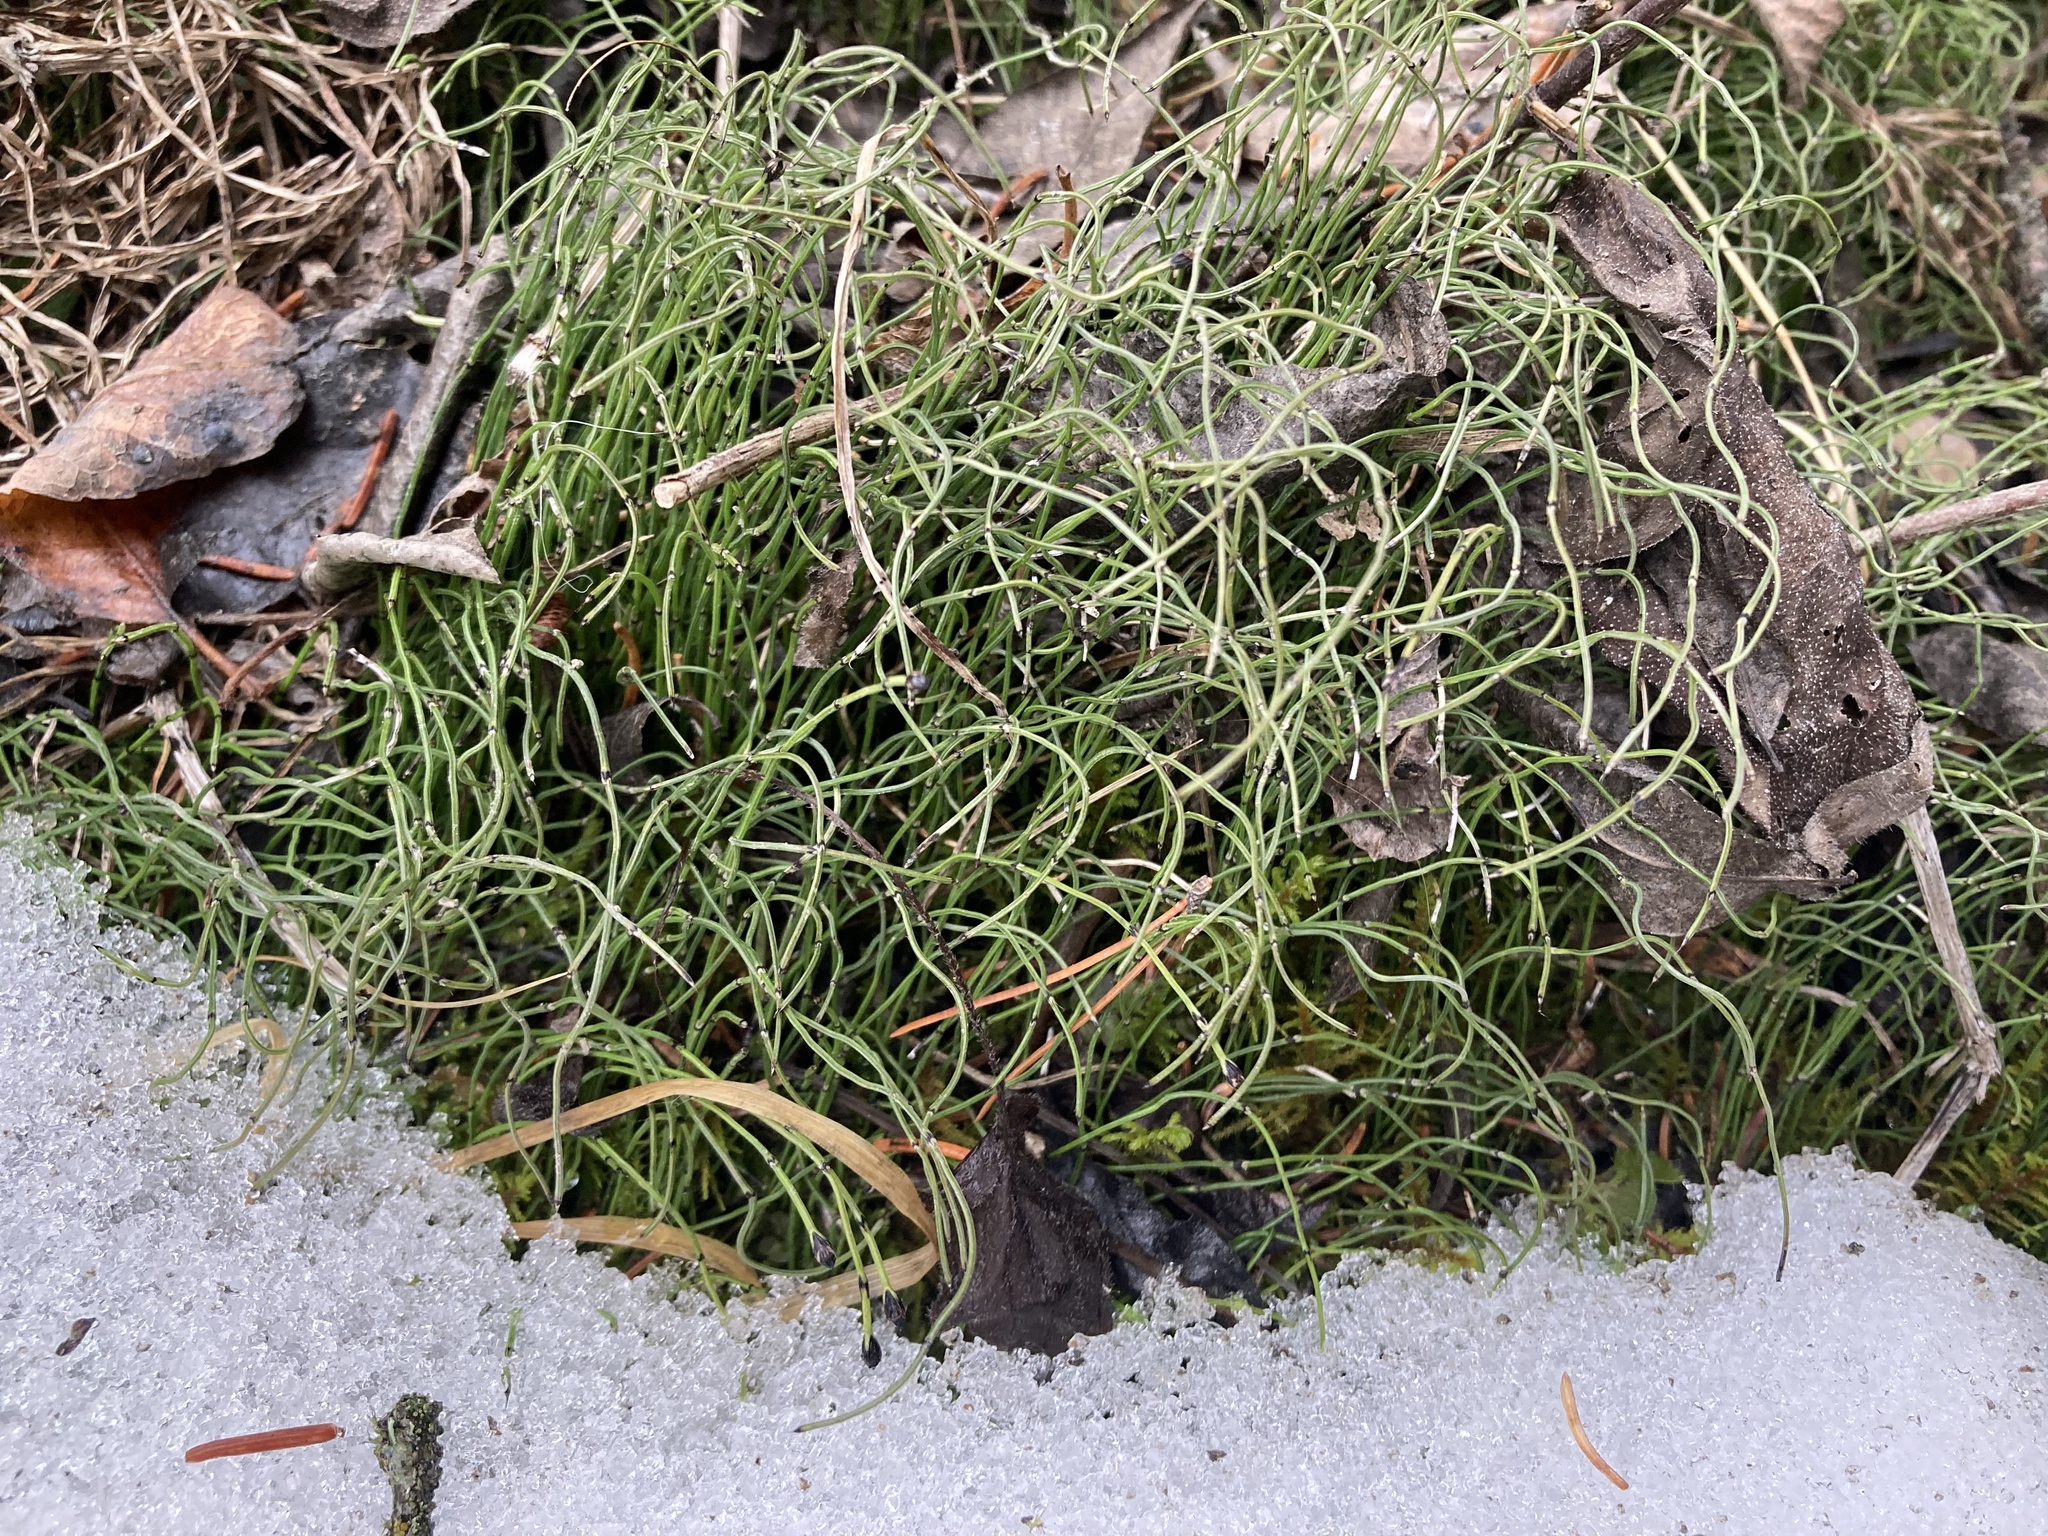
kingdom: Plantae
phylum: Tracheophyta
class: Polypodiopsida
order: Equisetales
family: Equisetaceae
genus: Equisetum
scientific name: Equisetum scirpoides
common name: Delicate horsetail
